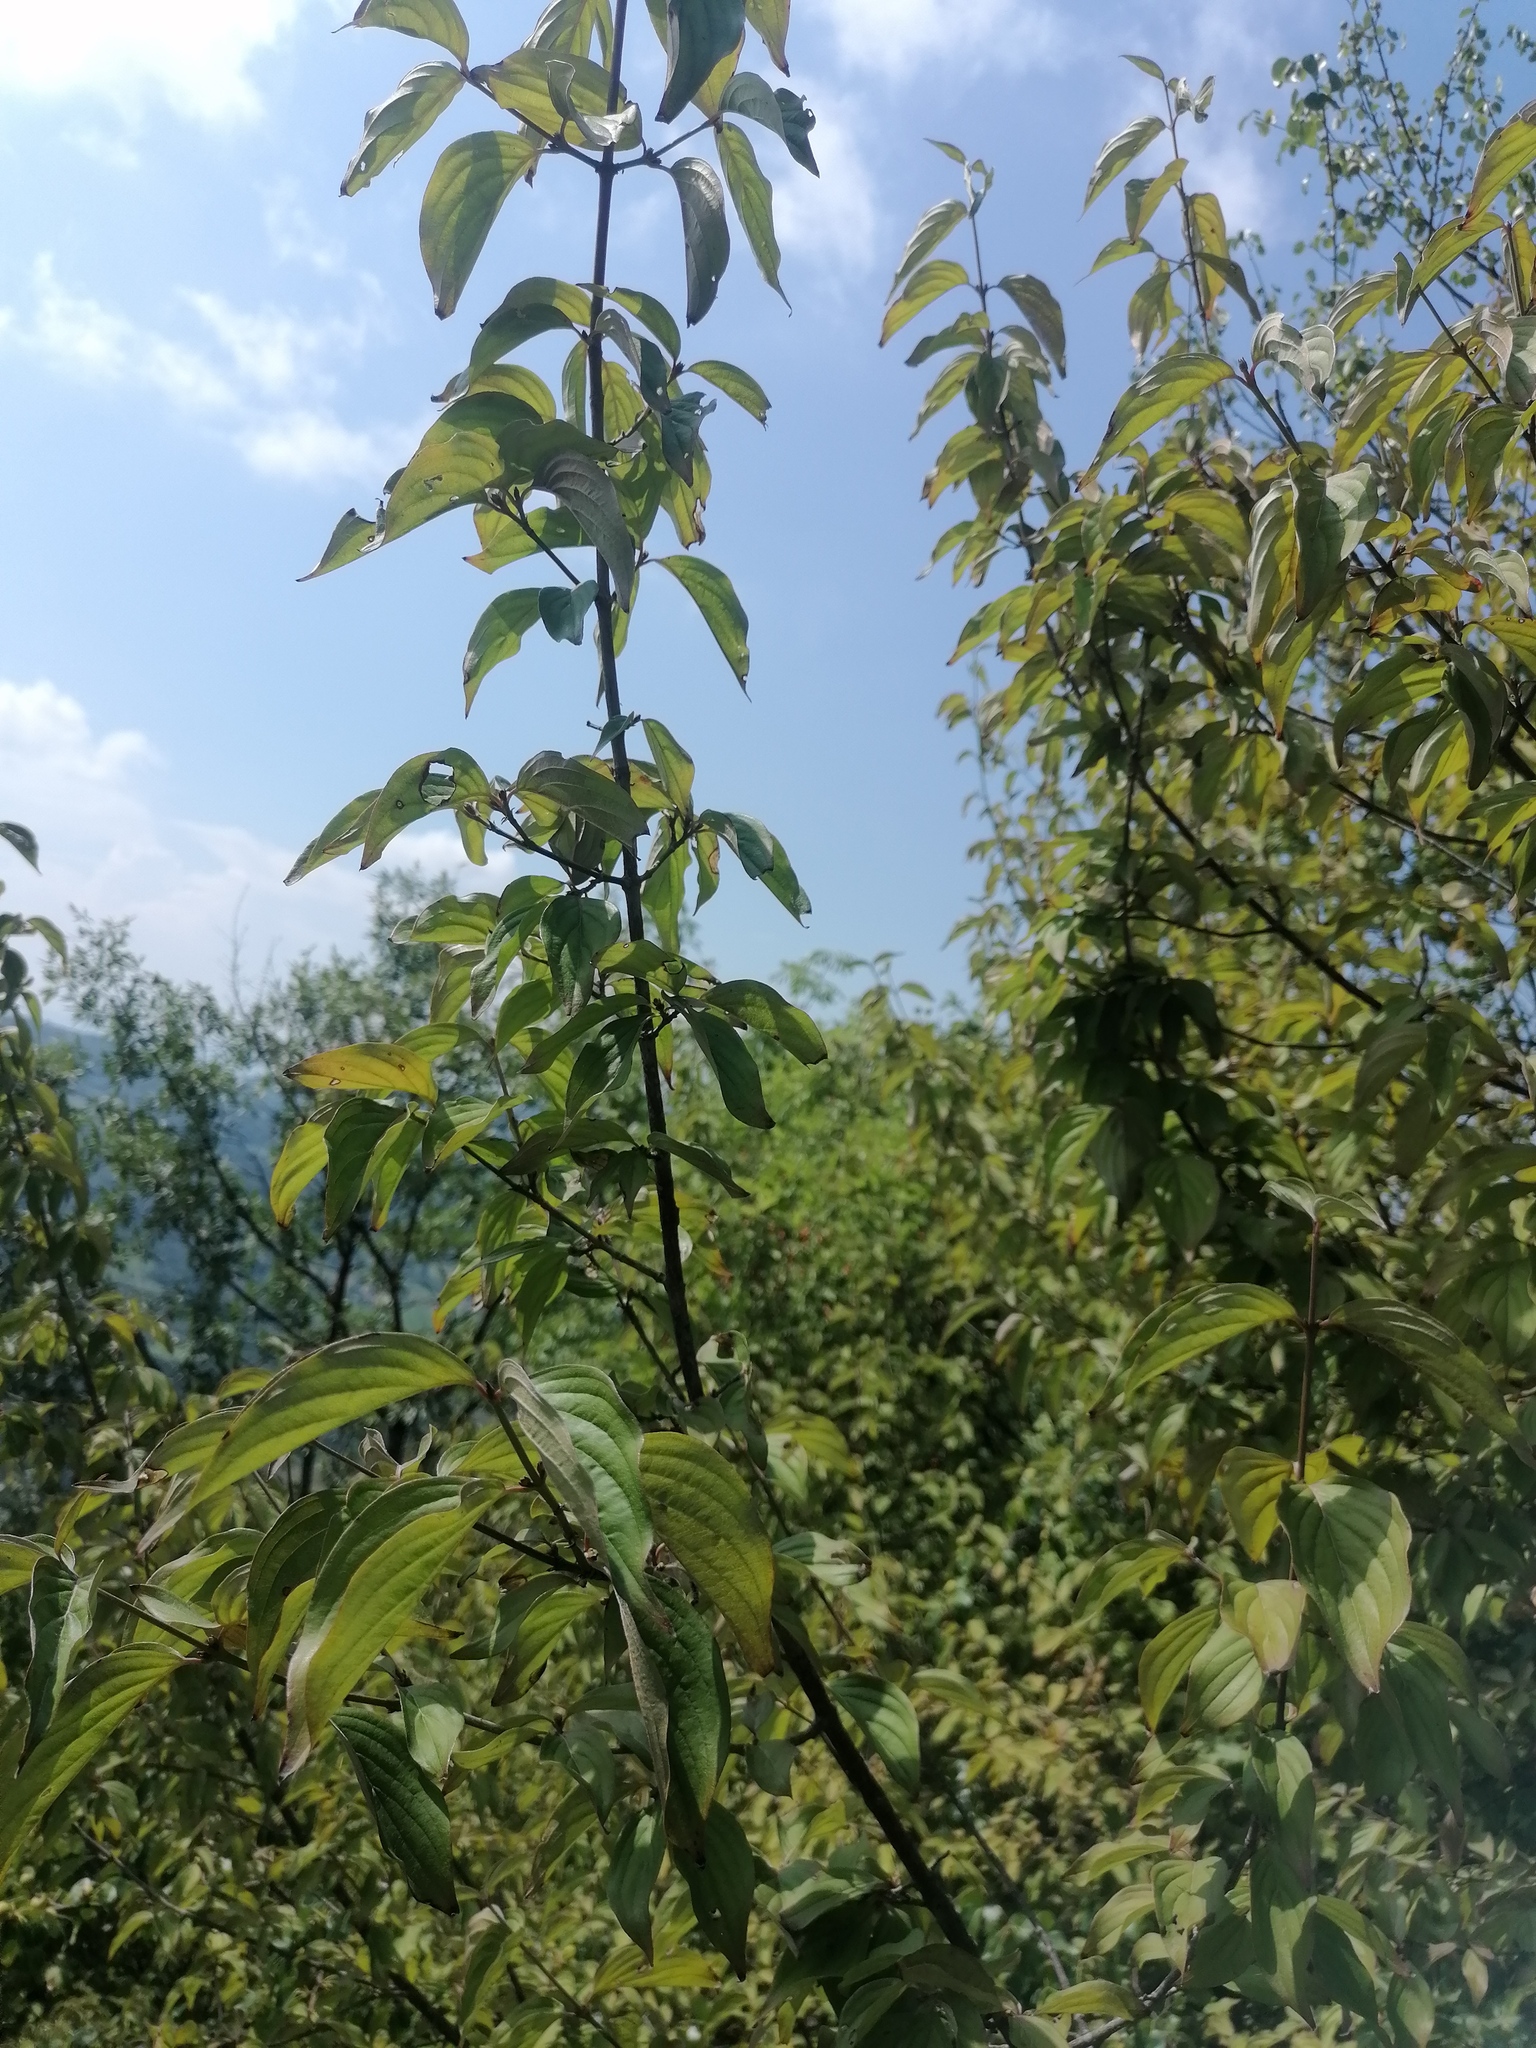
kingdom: Plantae
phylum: Tracheophyta
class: Magnoliopsida
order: Cornales
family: Cornaceae
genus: Cornus
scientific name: Cornus sanguinea
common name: Dogwood
